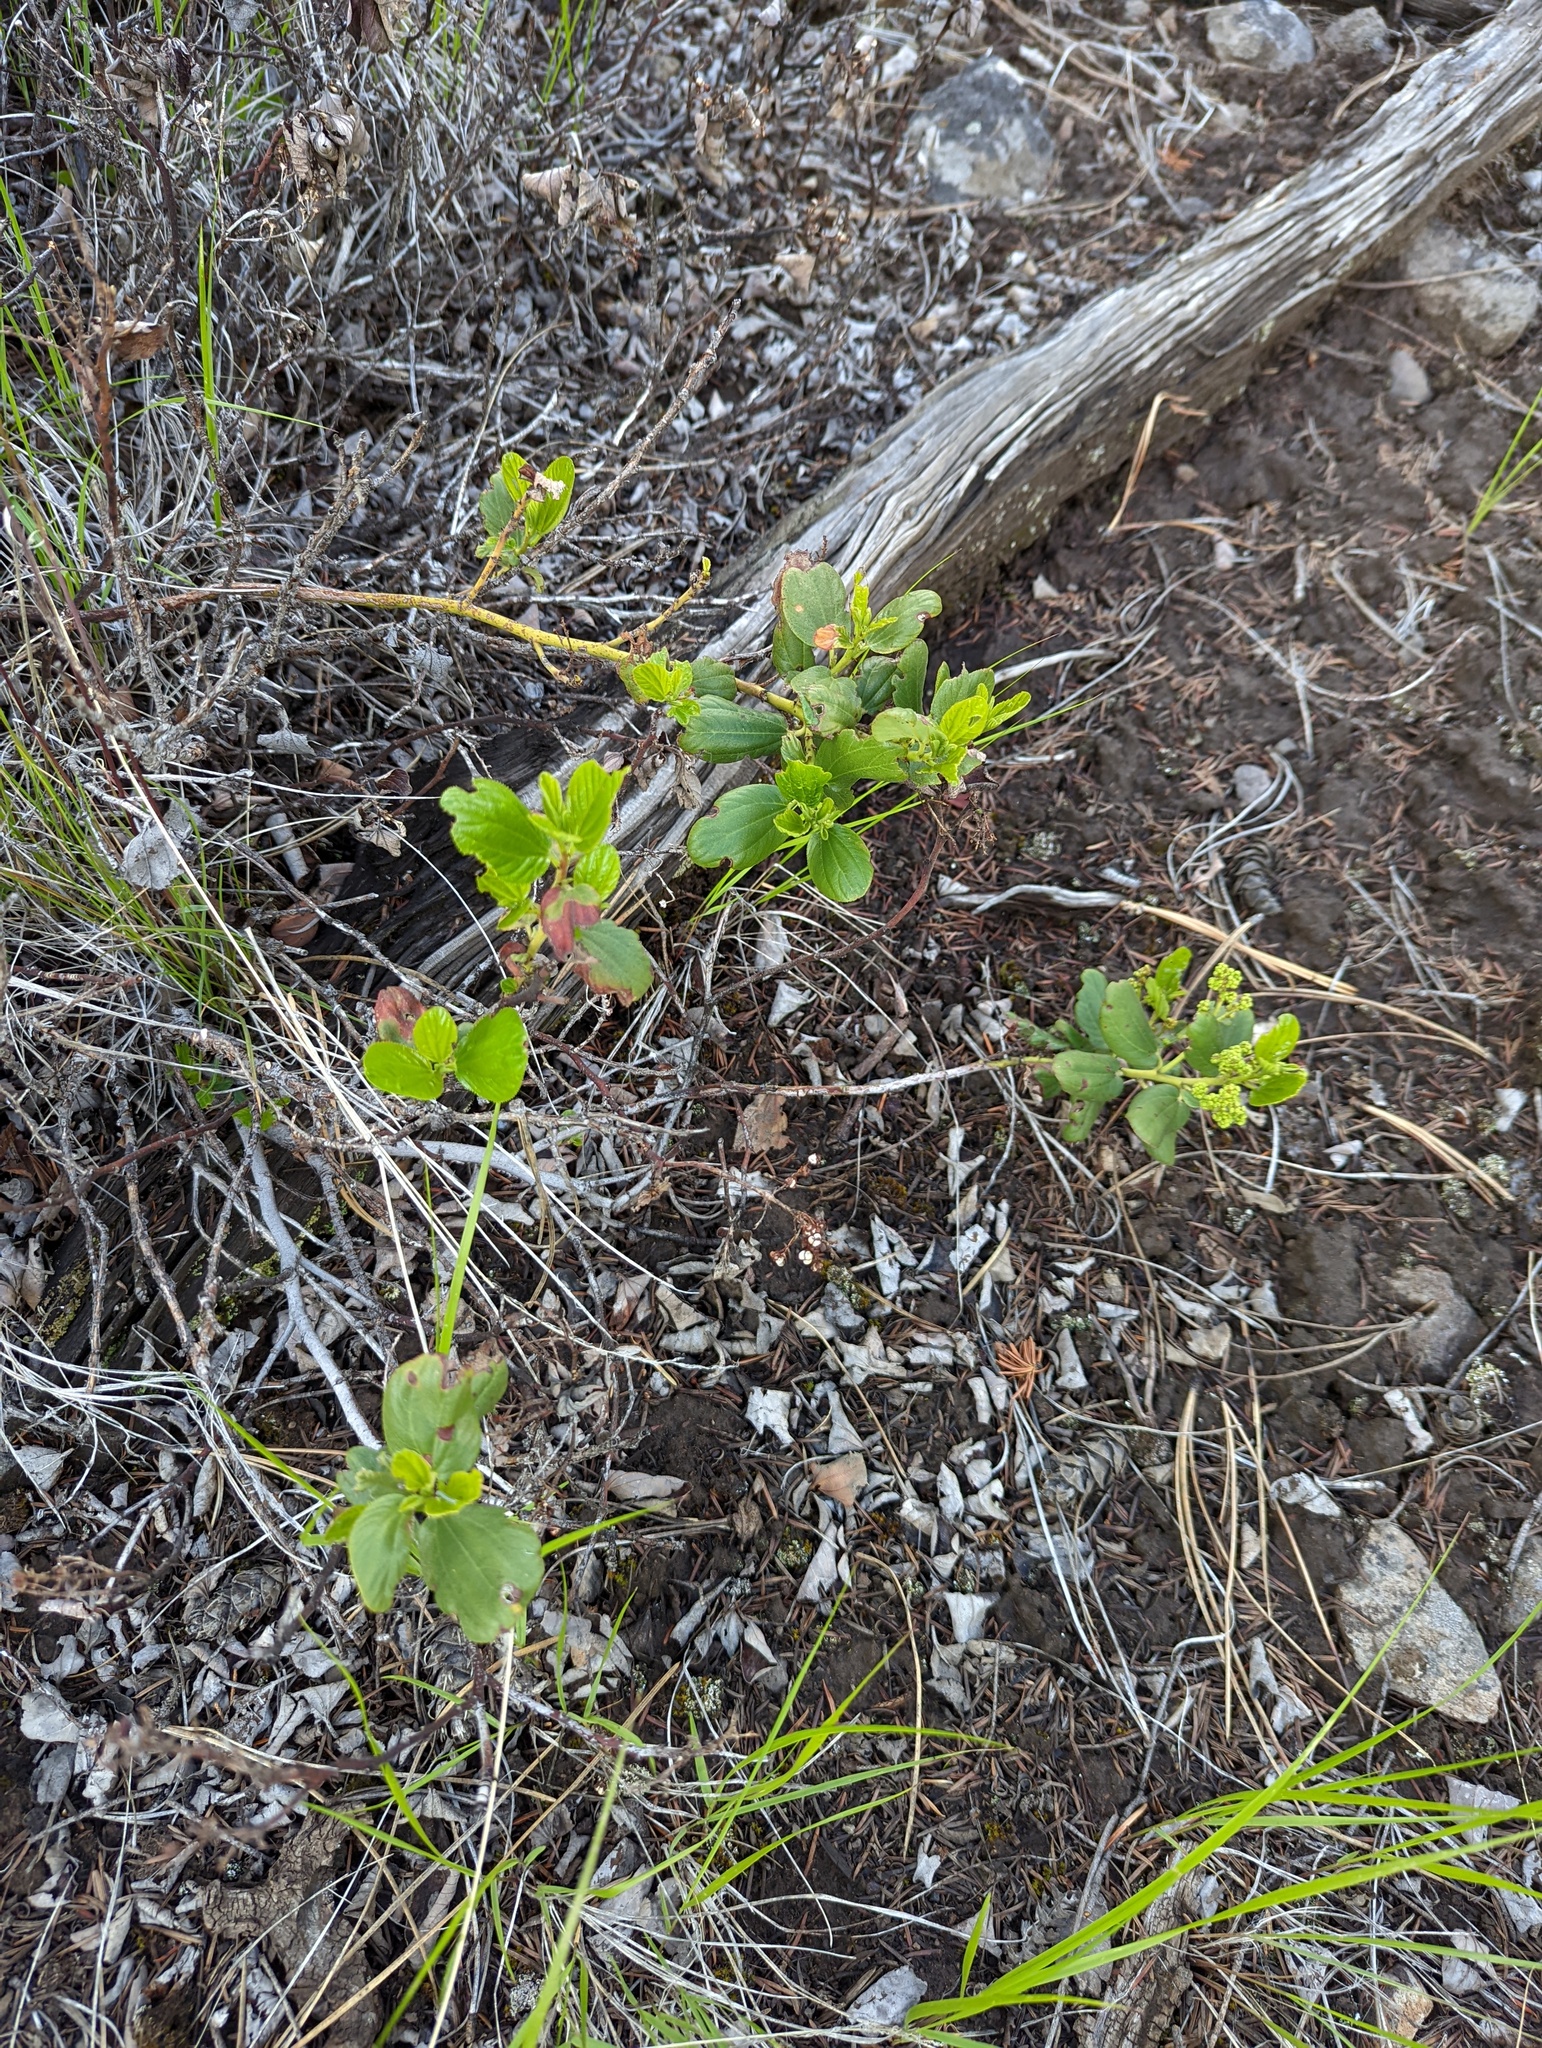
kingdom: Plantae
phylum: Tracheophyta
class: Magnoliopsida
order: Rosales
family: Rhamnaceae
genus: Ceanothus
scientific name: Ceanothus velutinus
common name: Snowbrush
